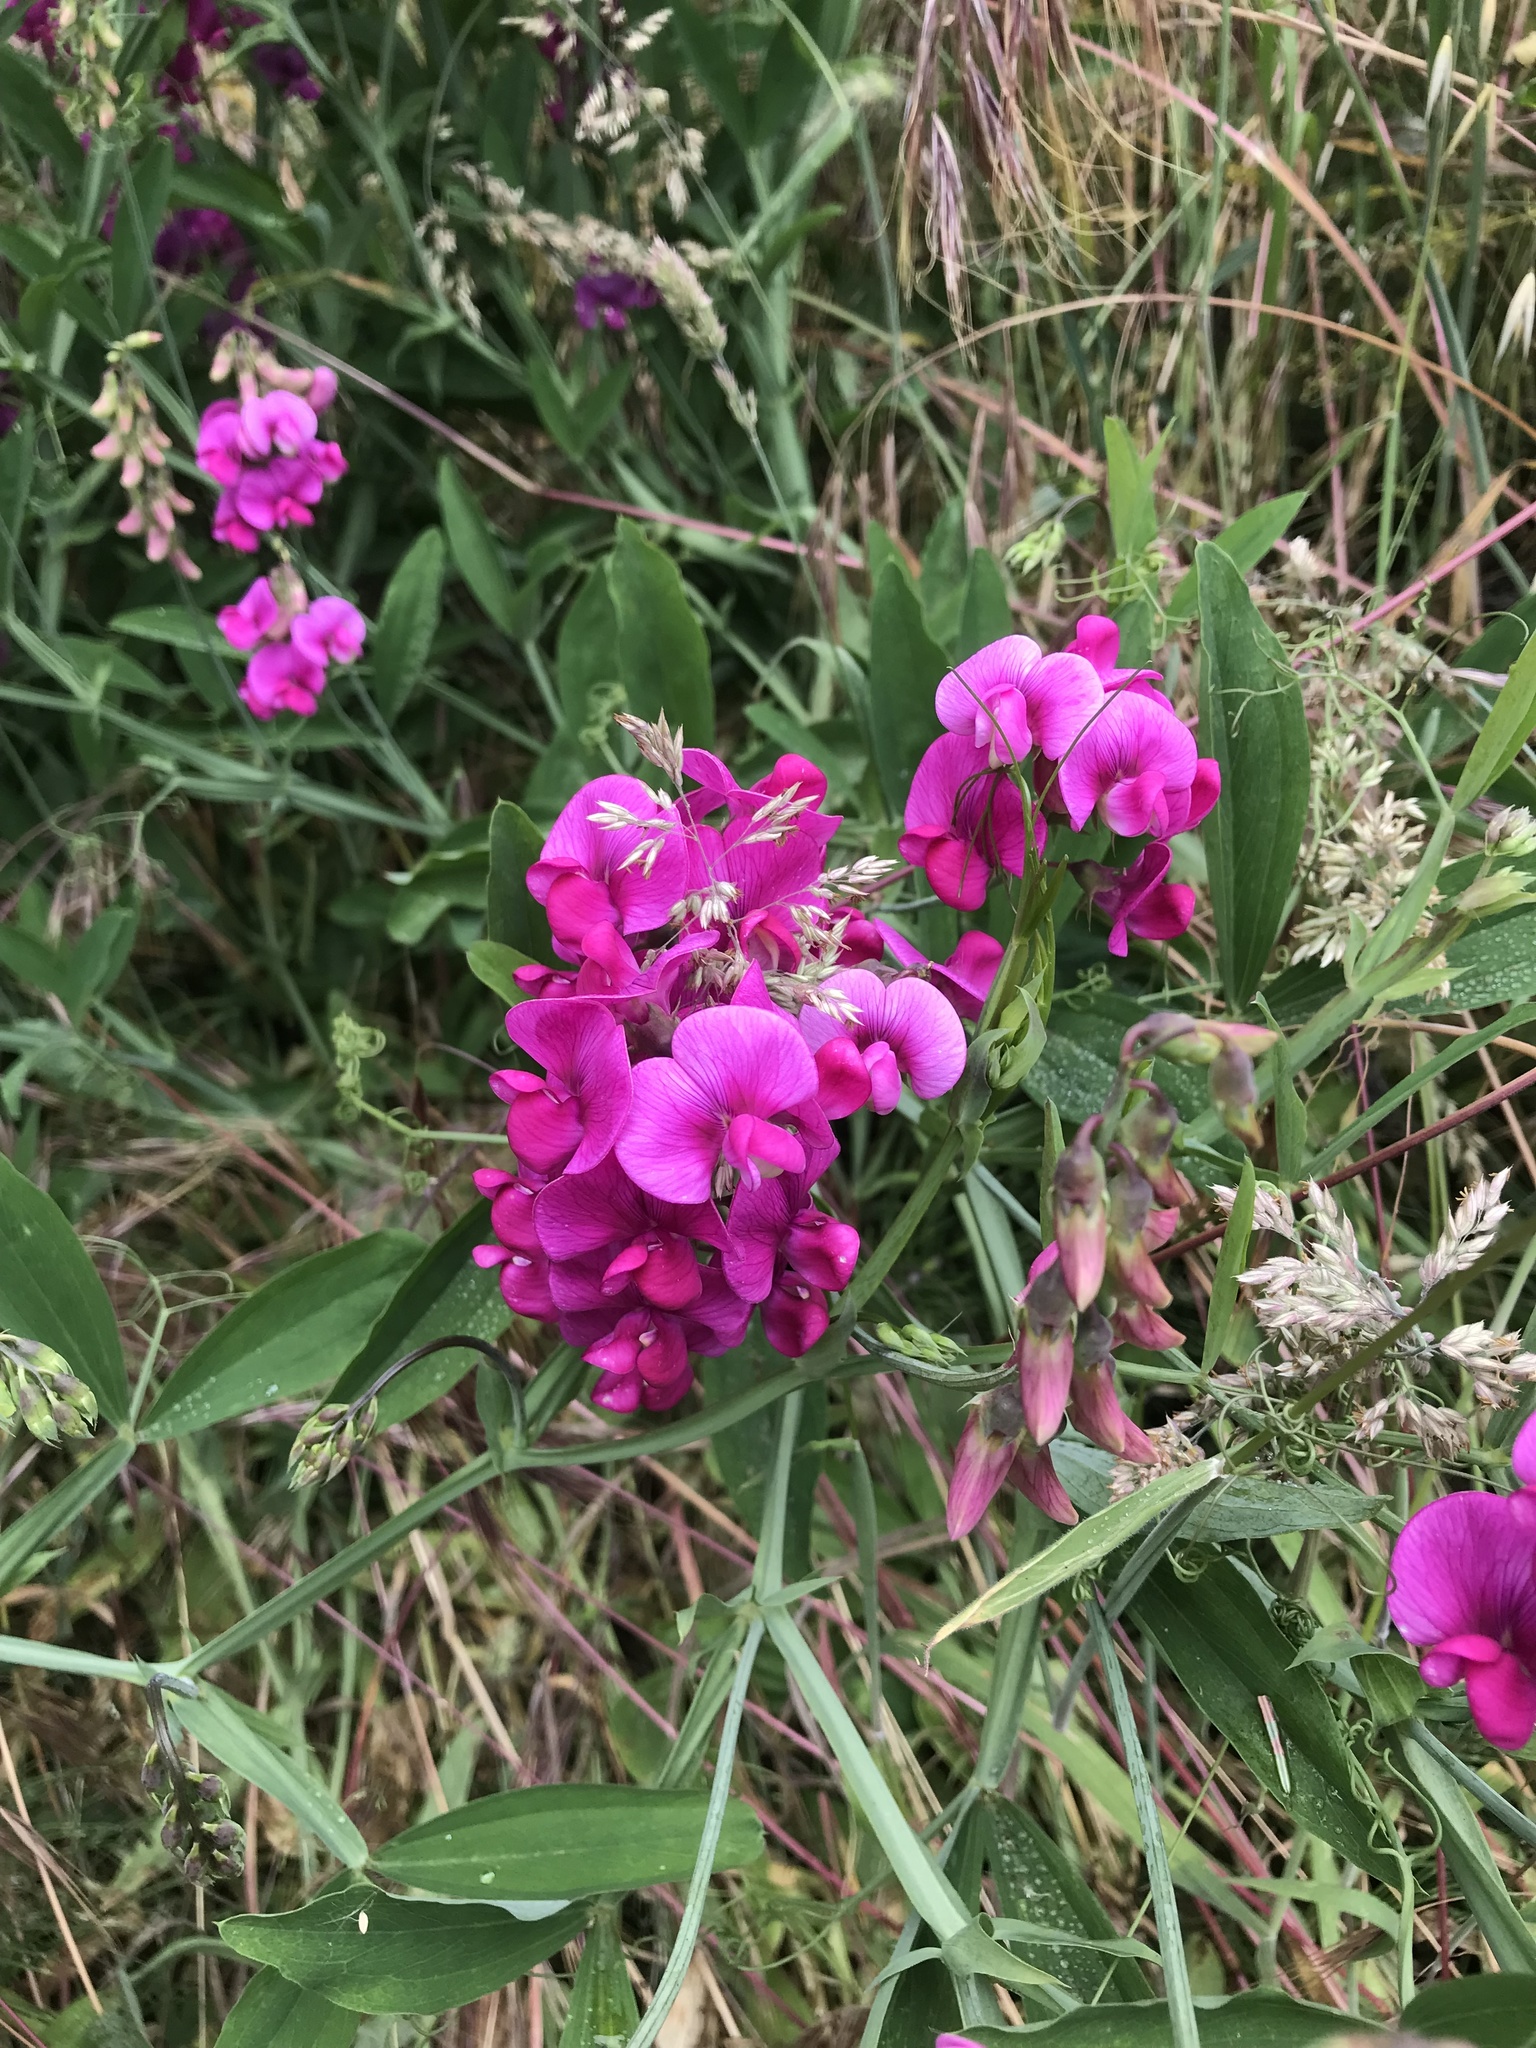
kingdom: Plantae
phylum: Tracheophyta
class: Magnoliopsida
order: Fabales
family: Fabaceae
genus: Lathyrus
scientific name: Lathyrus latifolius
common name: Perennial pea
